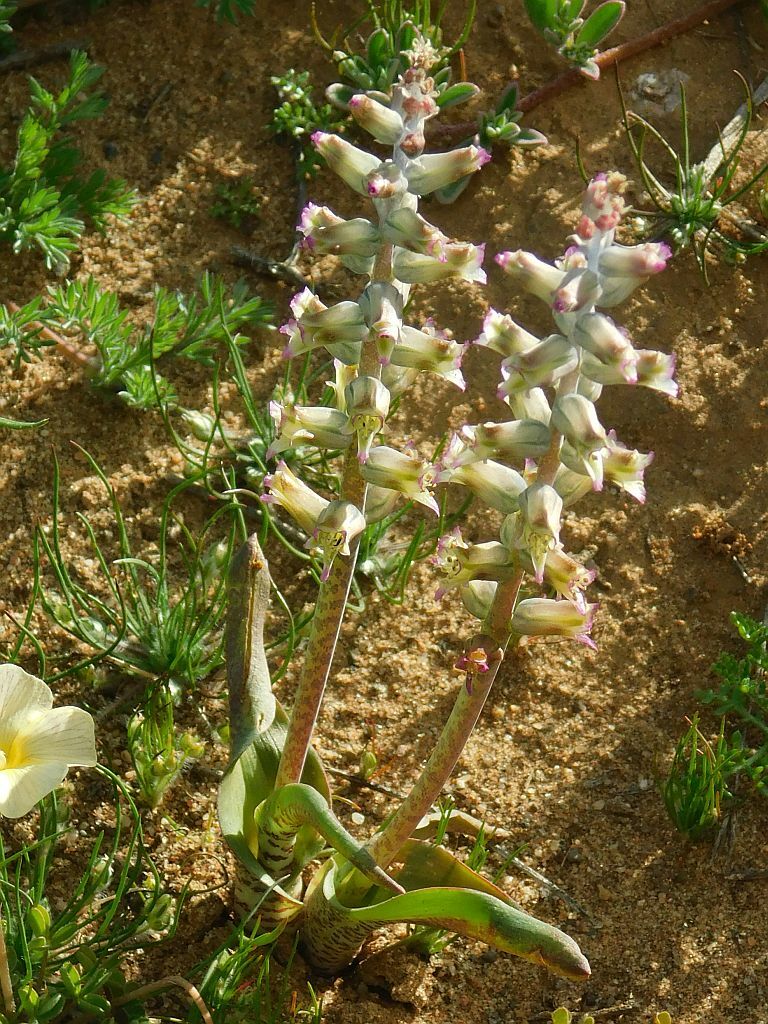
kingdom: Plantae
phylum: Tracheophyta
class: Liliopsida
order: Asparagales
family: Asparagaceae
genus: Lachenalia
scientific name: Lachenalia obscura
